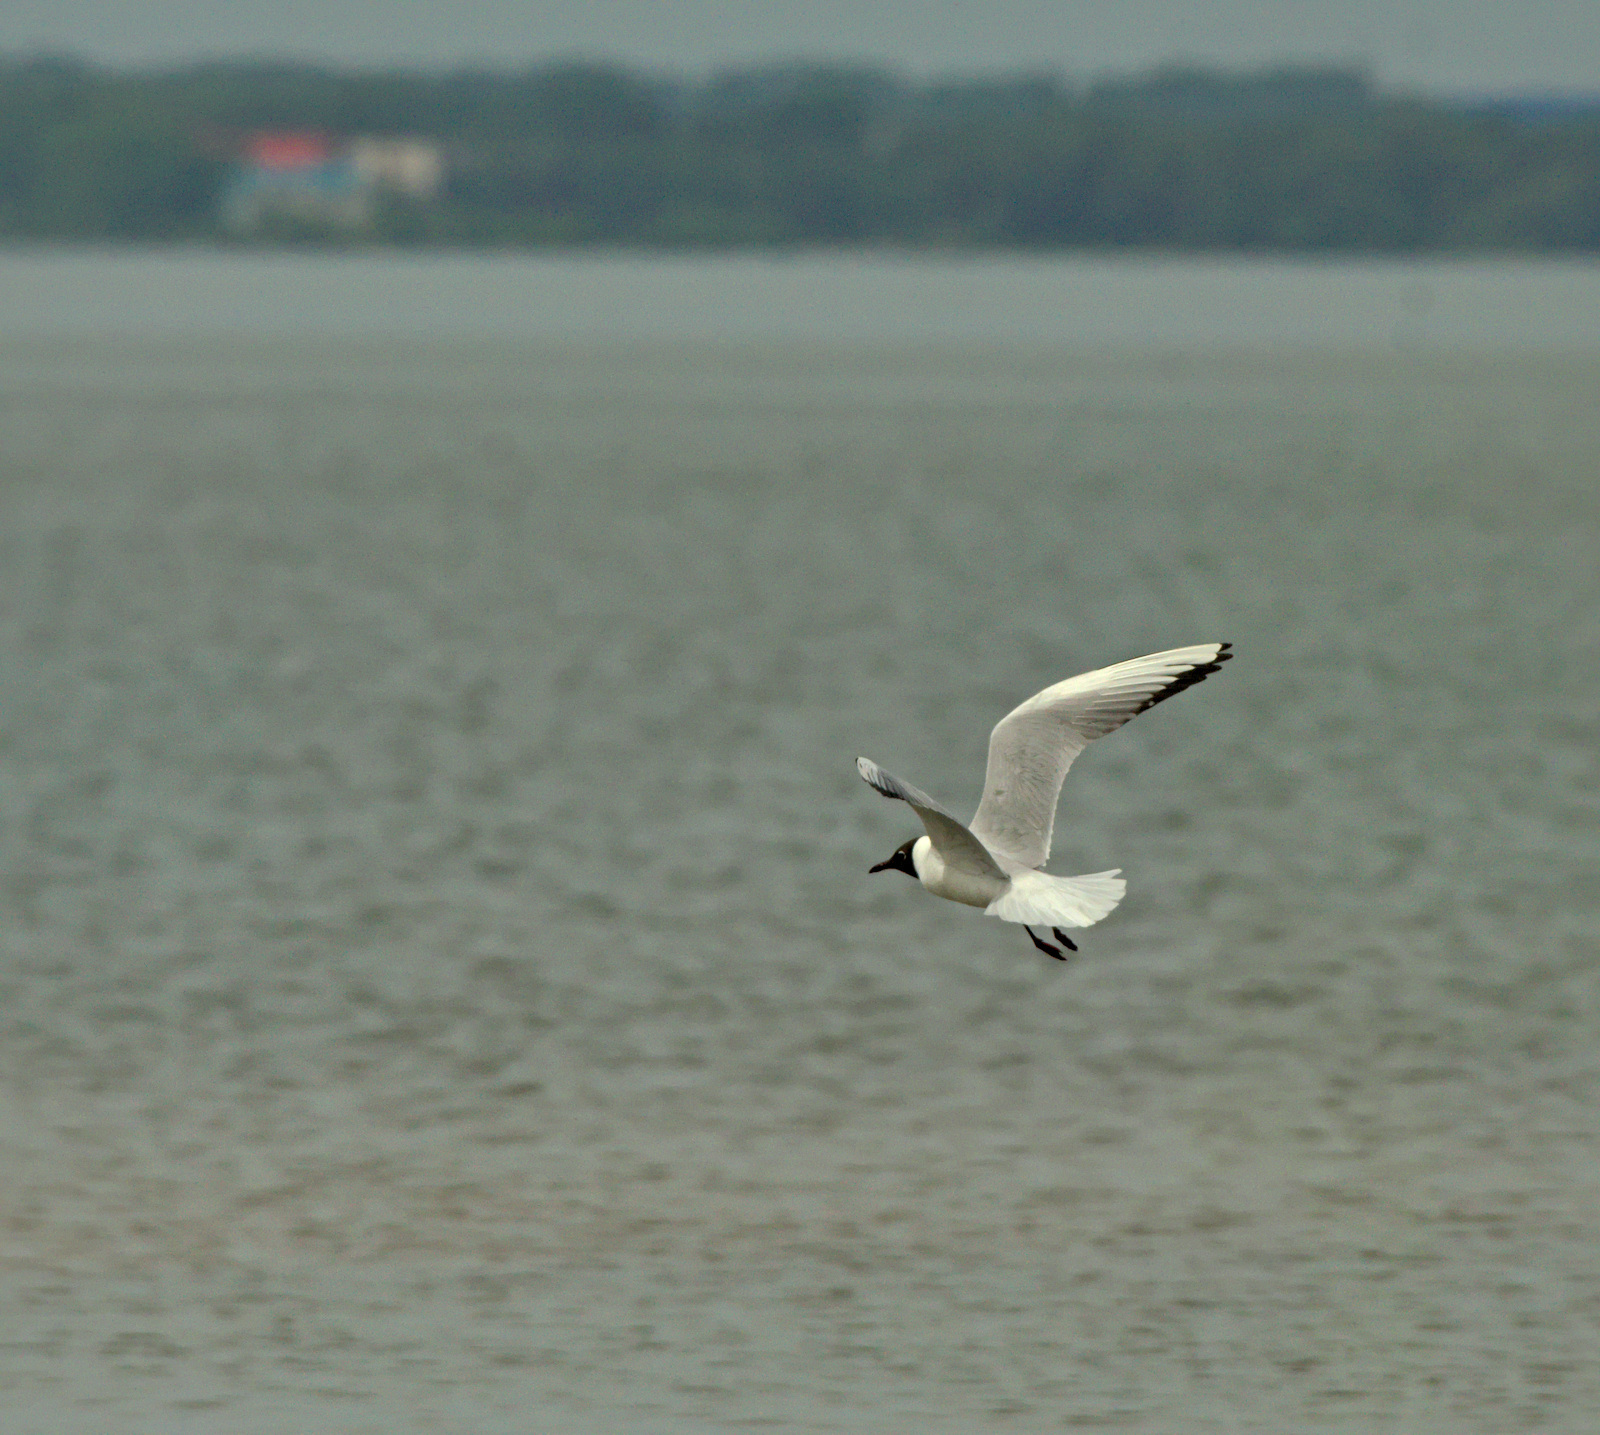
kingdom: Animalia
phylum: Chordata
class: Aves
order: Charadriiformes
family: Laridae
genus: Chroicocephalus
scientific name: Chroicocephalus ridibundus
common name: Black-headed gull
